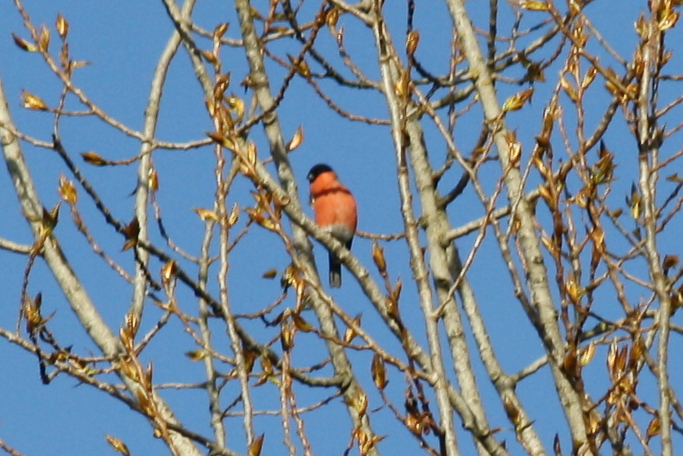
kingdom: Animalia
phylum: Chordata
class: Aves
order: Passeriformes
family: Fringillidae
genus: Pyrrhula
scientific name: Pyrrhula pyrrhula
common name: Eurasian bullfinch
